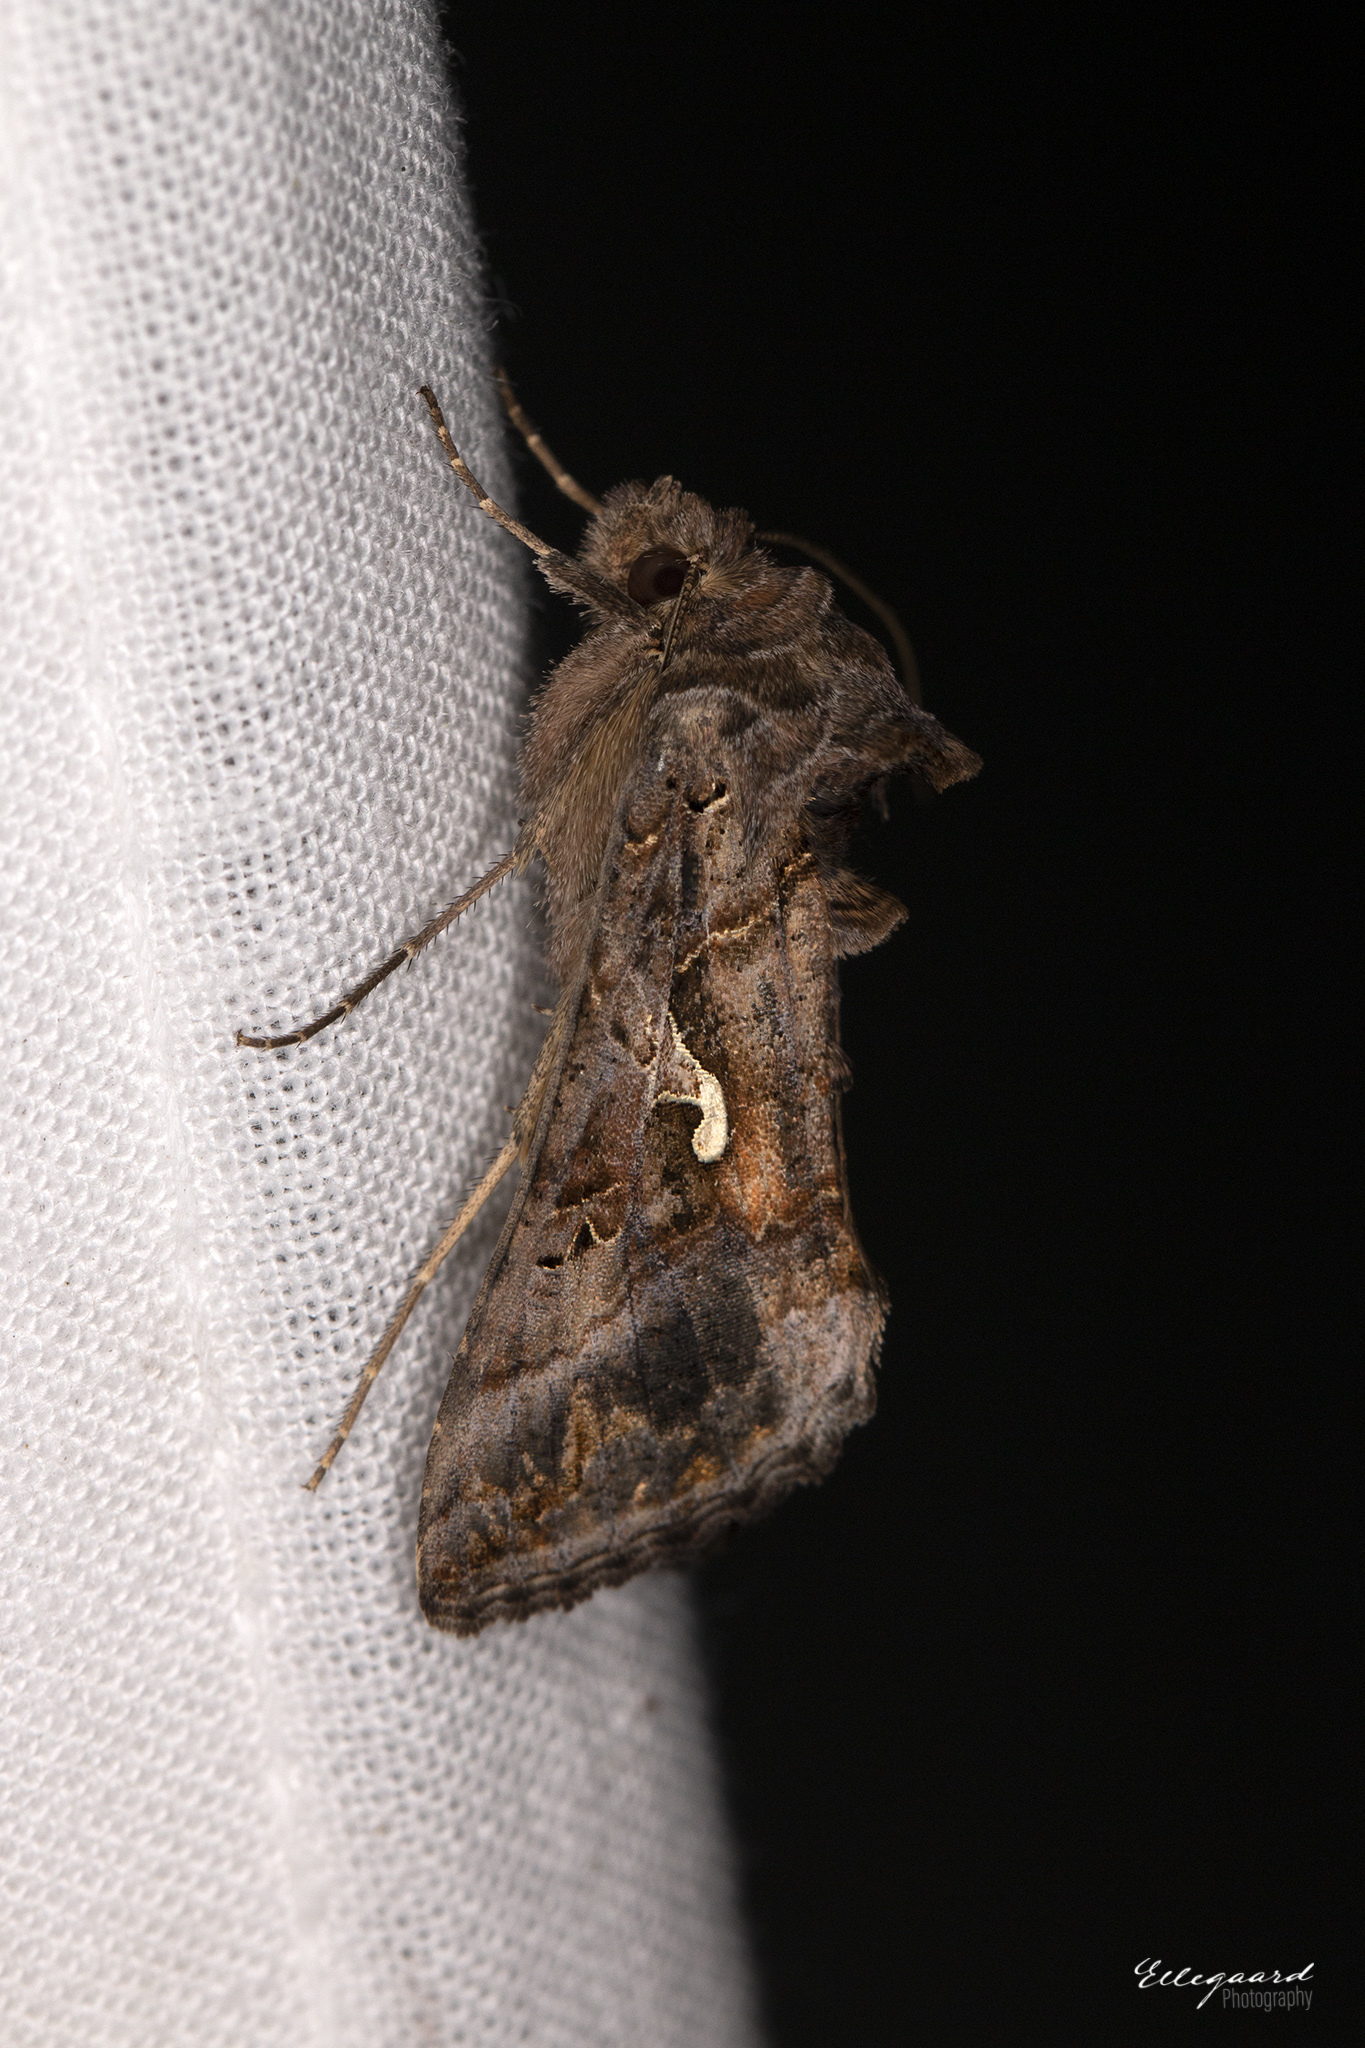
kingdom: Animalia
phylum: Arthropoda
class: Insecta
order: Lepidoptera
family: Noctuidae
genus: Autographa
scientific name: Autographa gamma
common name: Silver y
